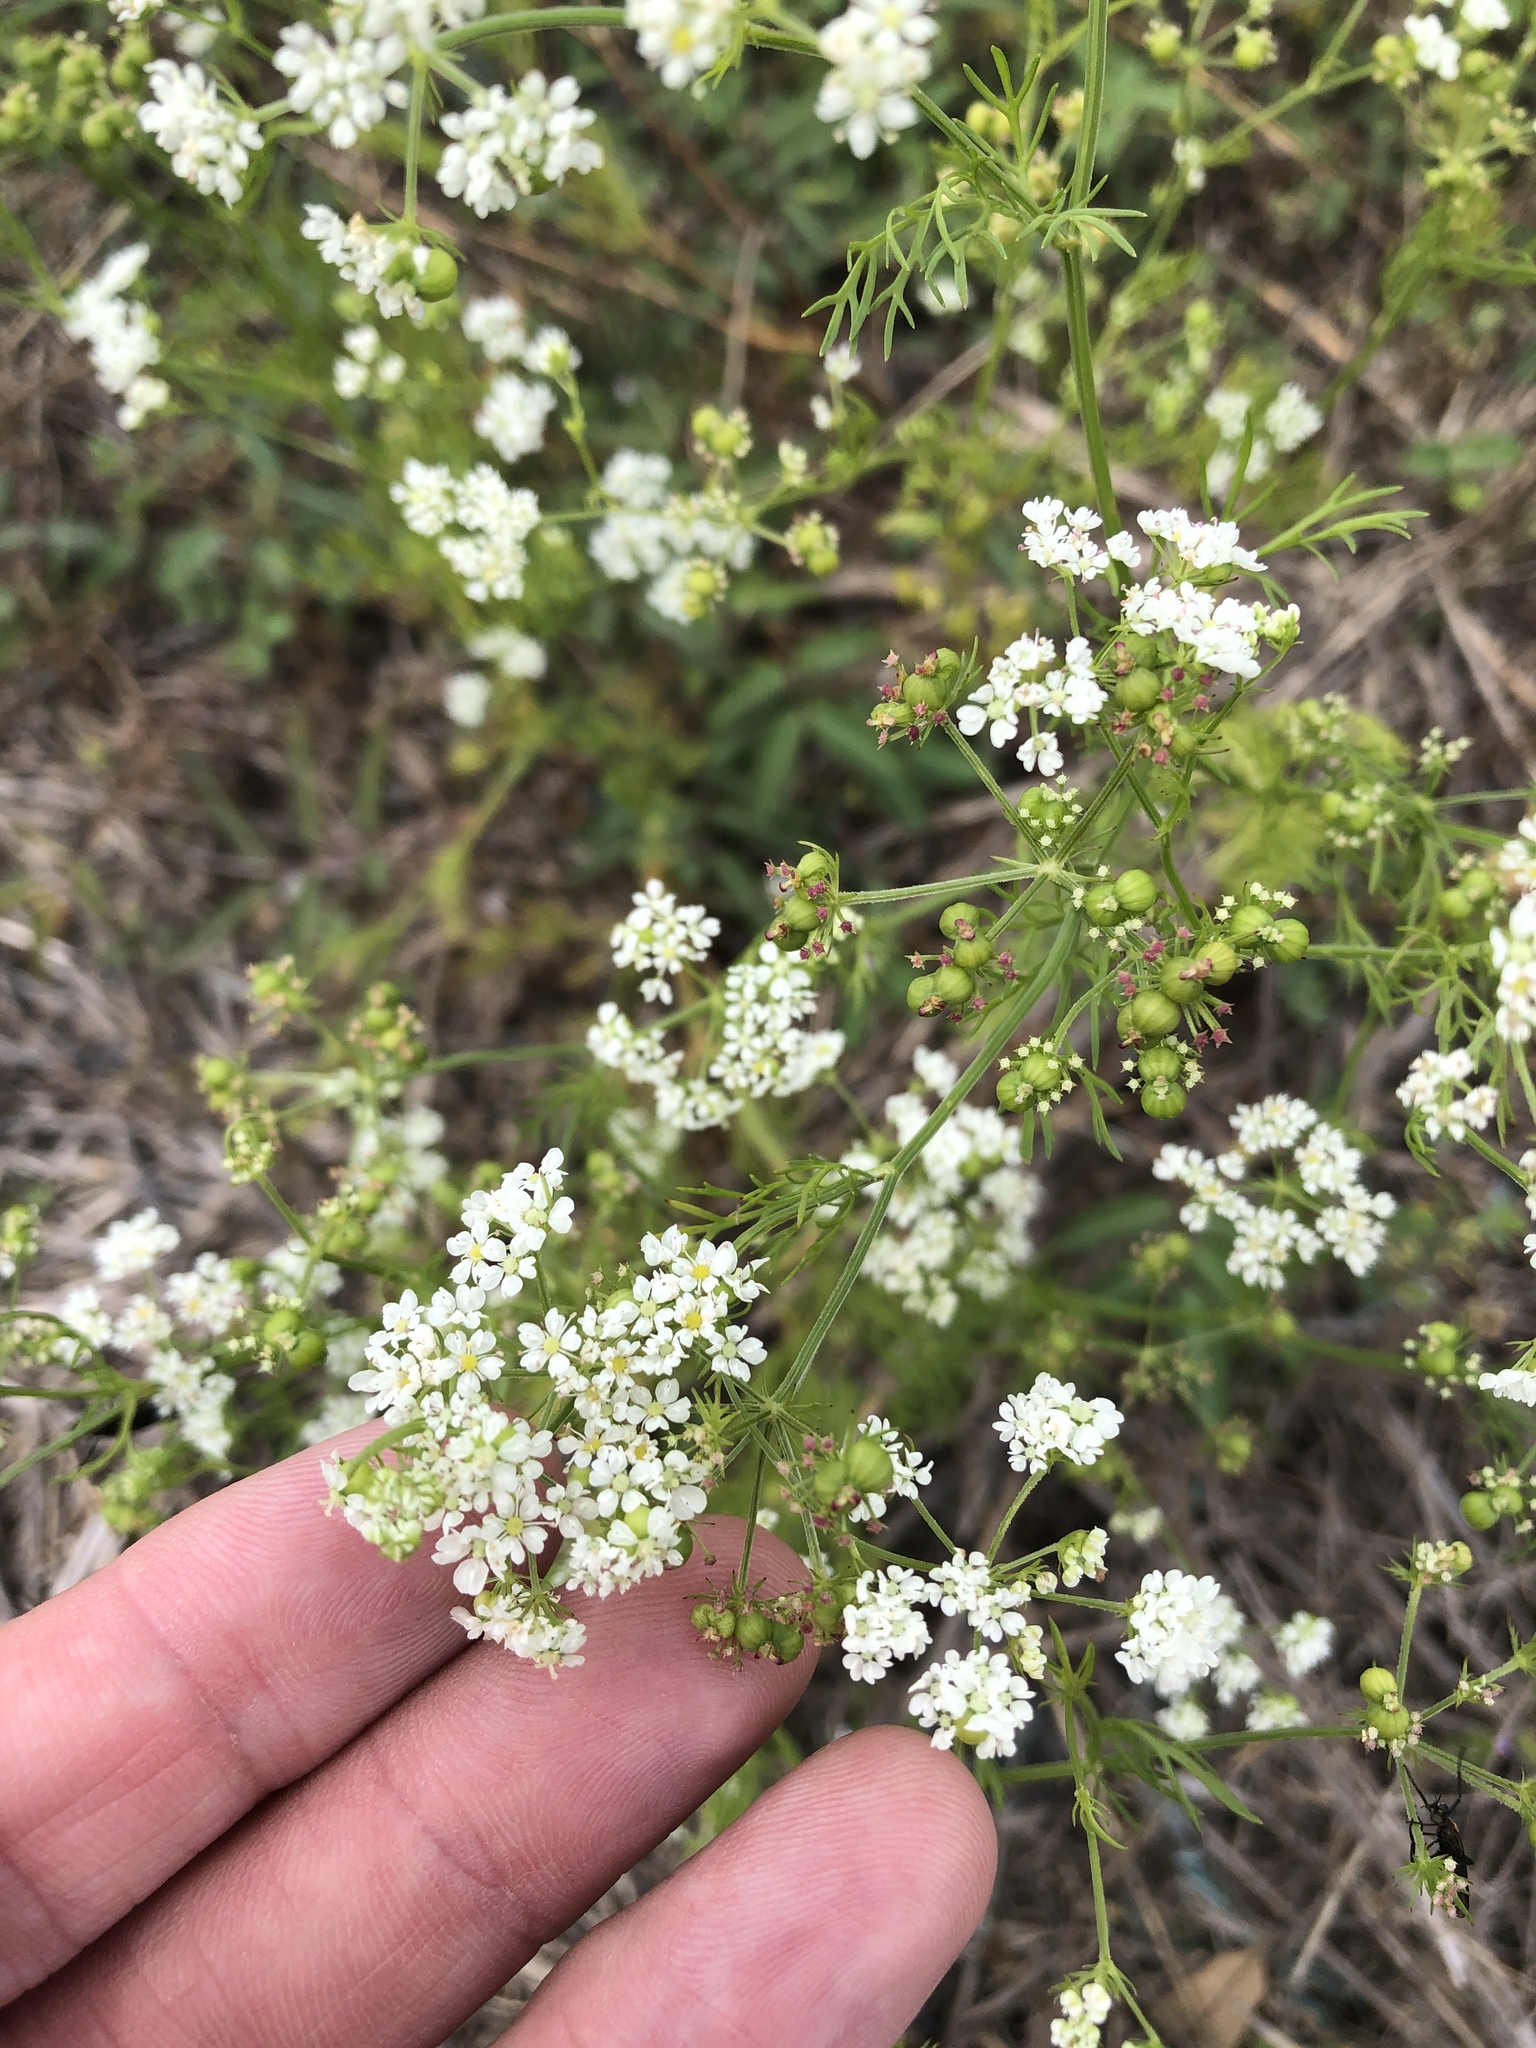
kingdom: Plantae
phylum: Tracheophyta
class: Magnoliopsida
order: Apiales
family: Apiaceae
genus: Atrema
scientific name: Atrema americanum
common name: Prairie-bishop
